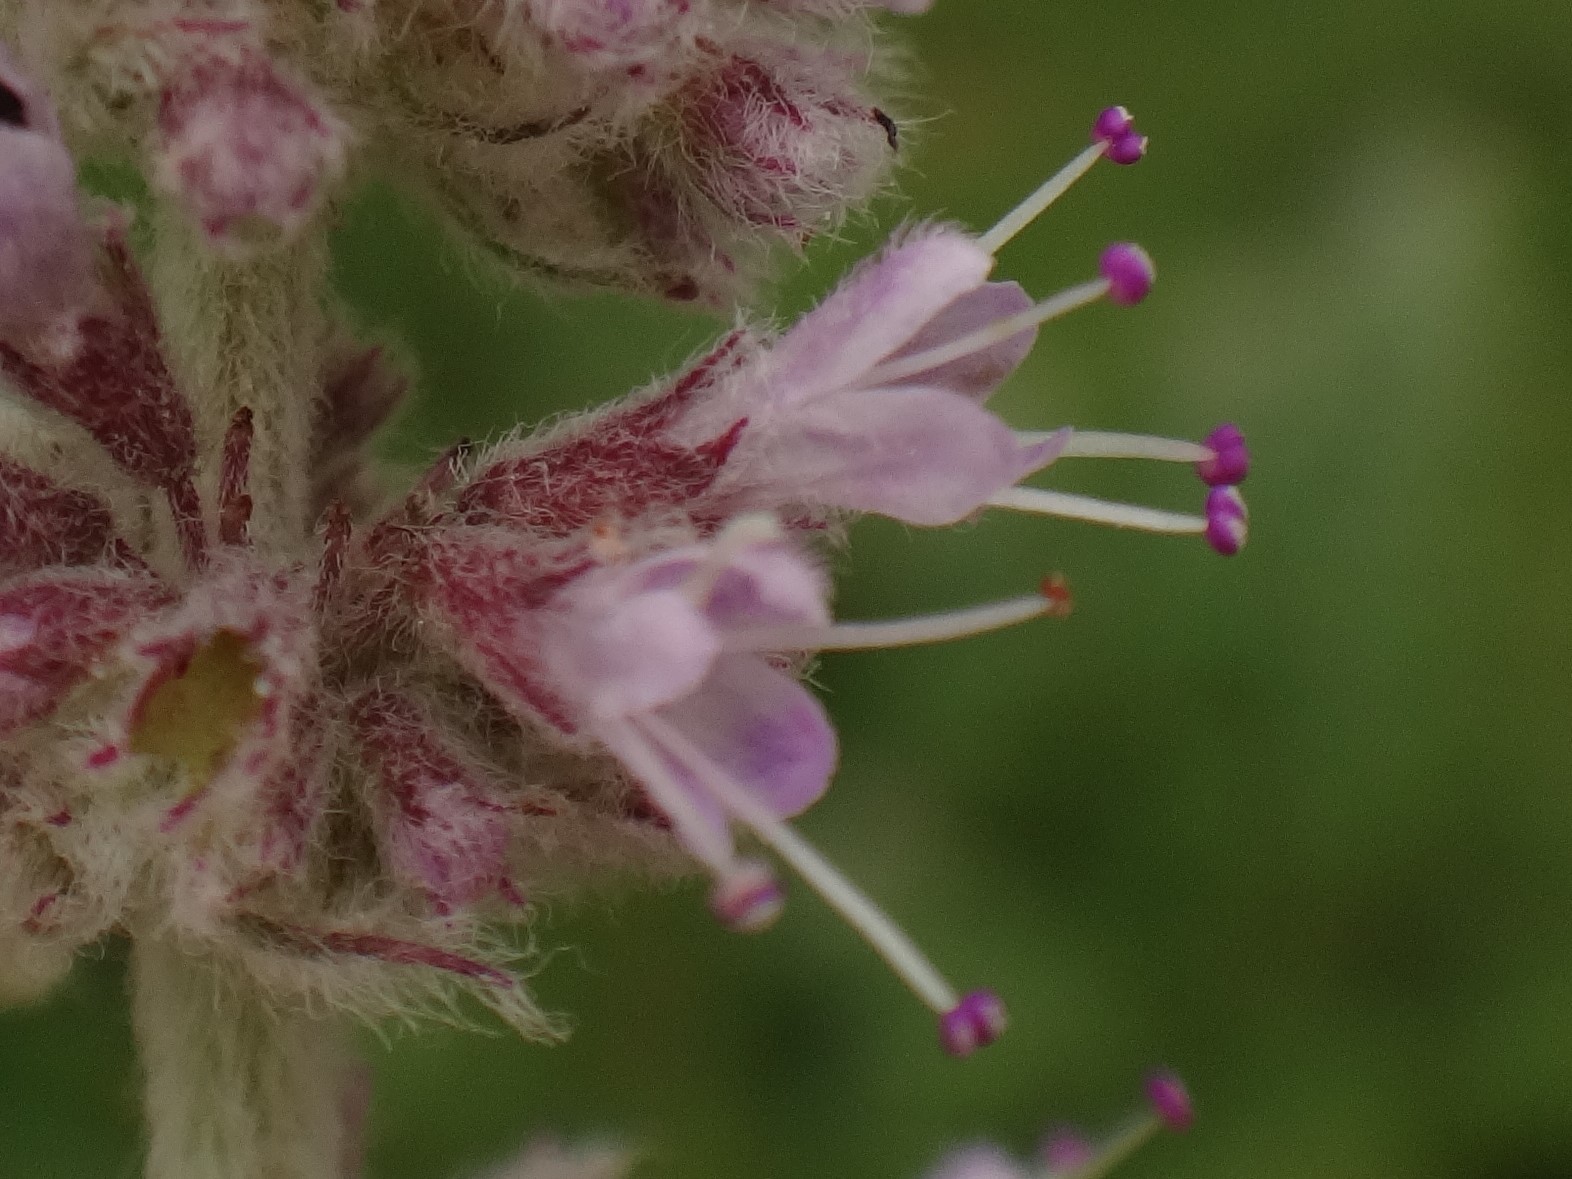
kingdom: Plantae
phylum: Tracheophyta
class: Magnoliopsida
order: Lamiales
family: Lamiaceae
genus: Mentha
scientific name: Mentha longifolia
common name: Horse mint
